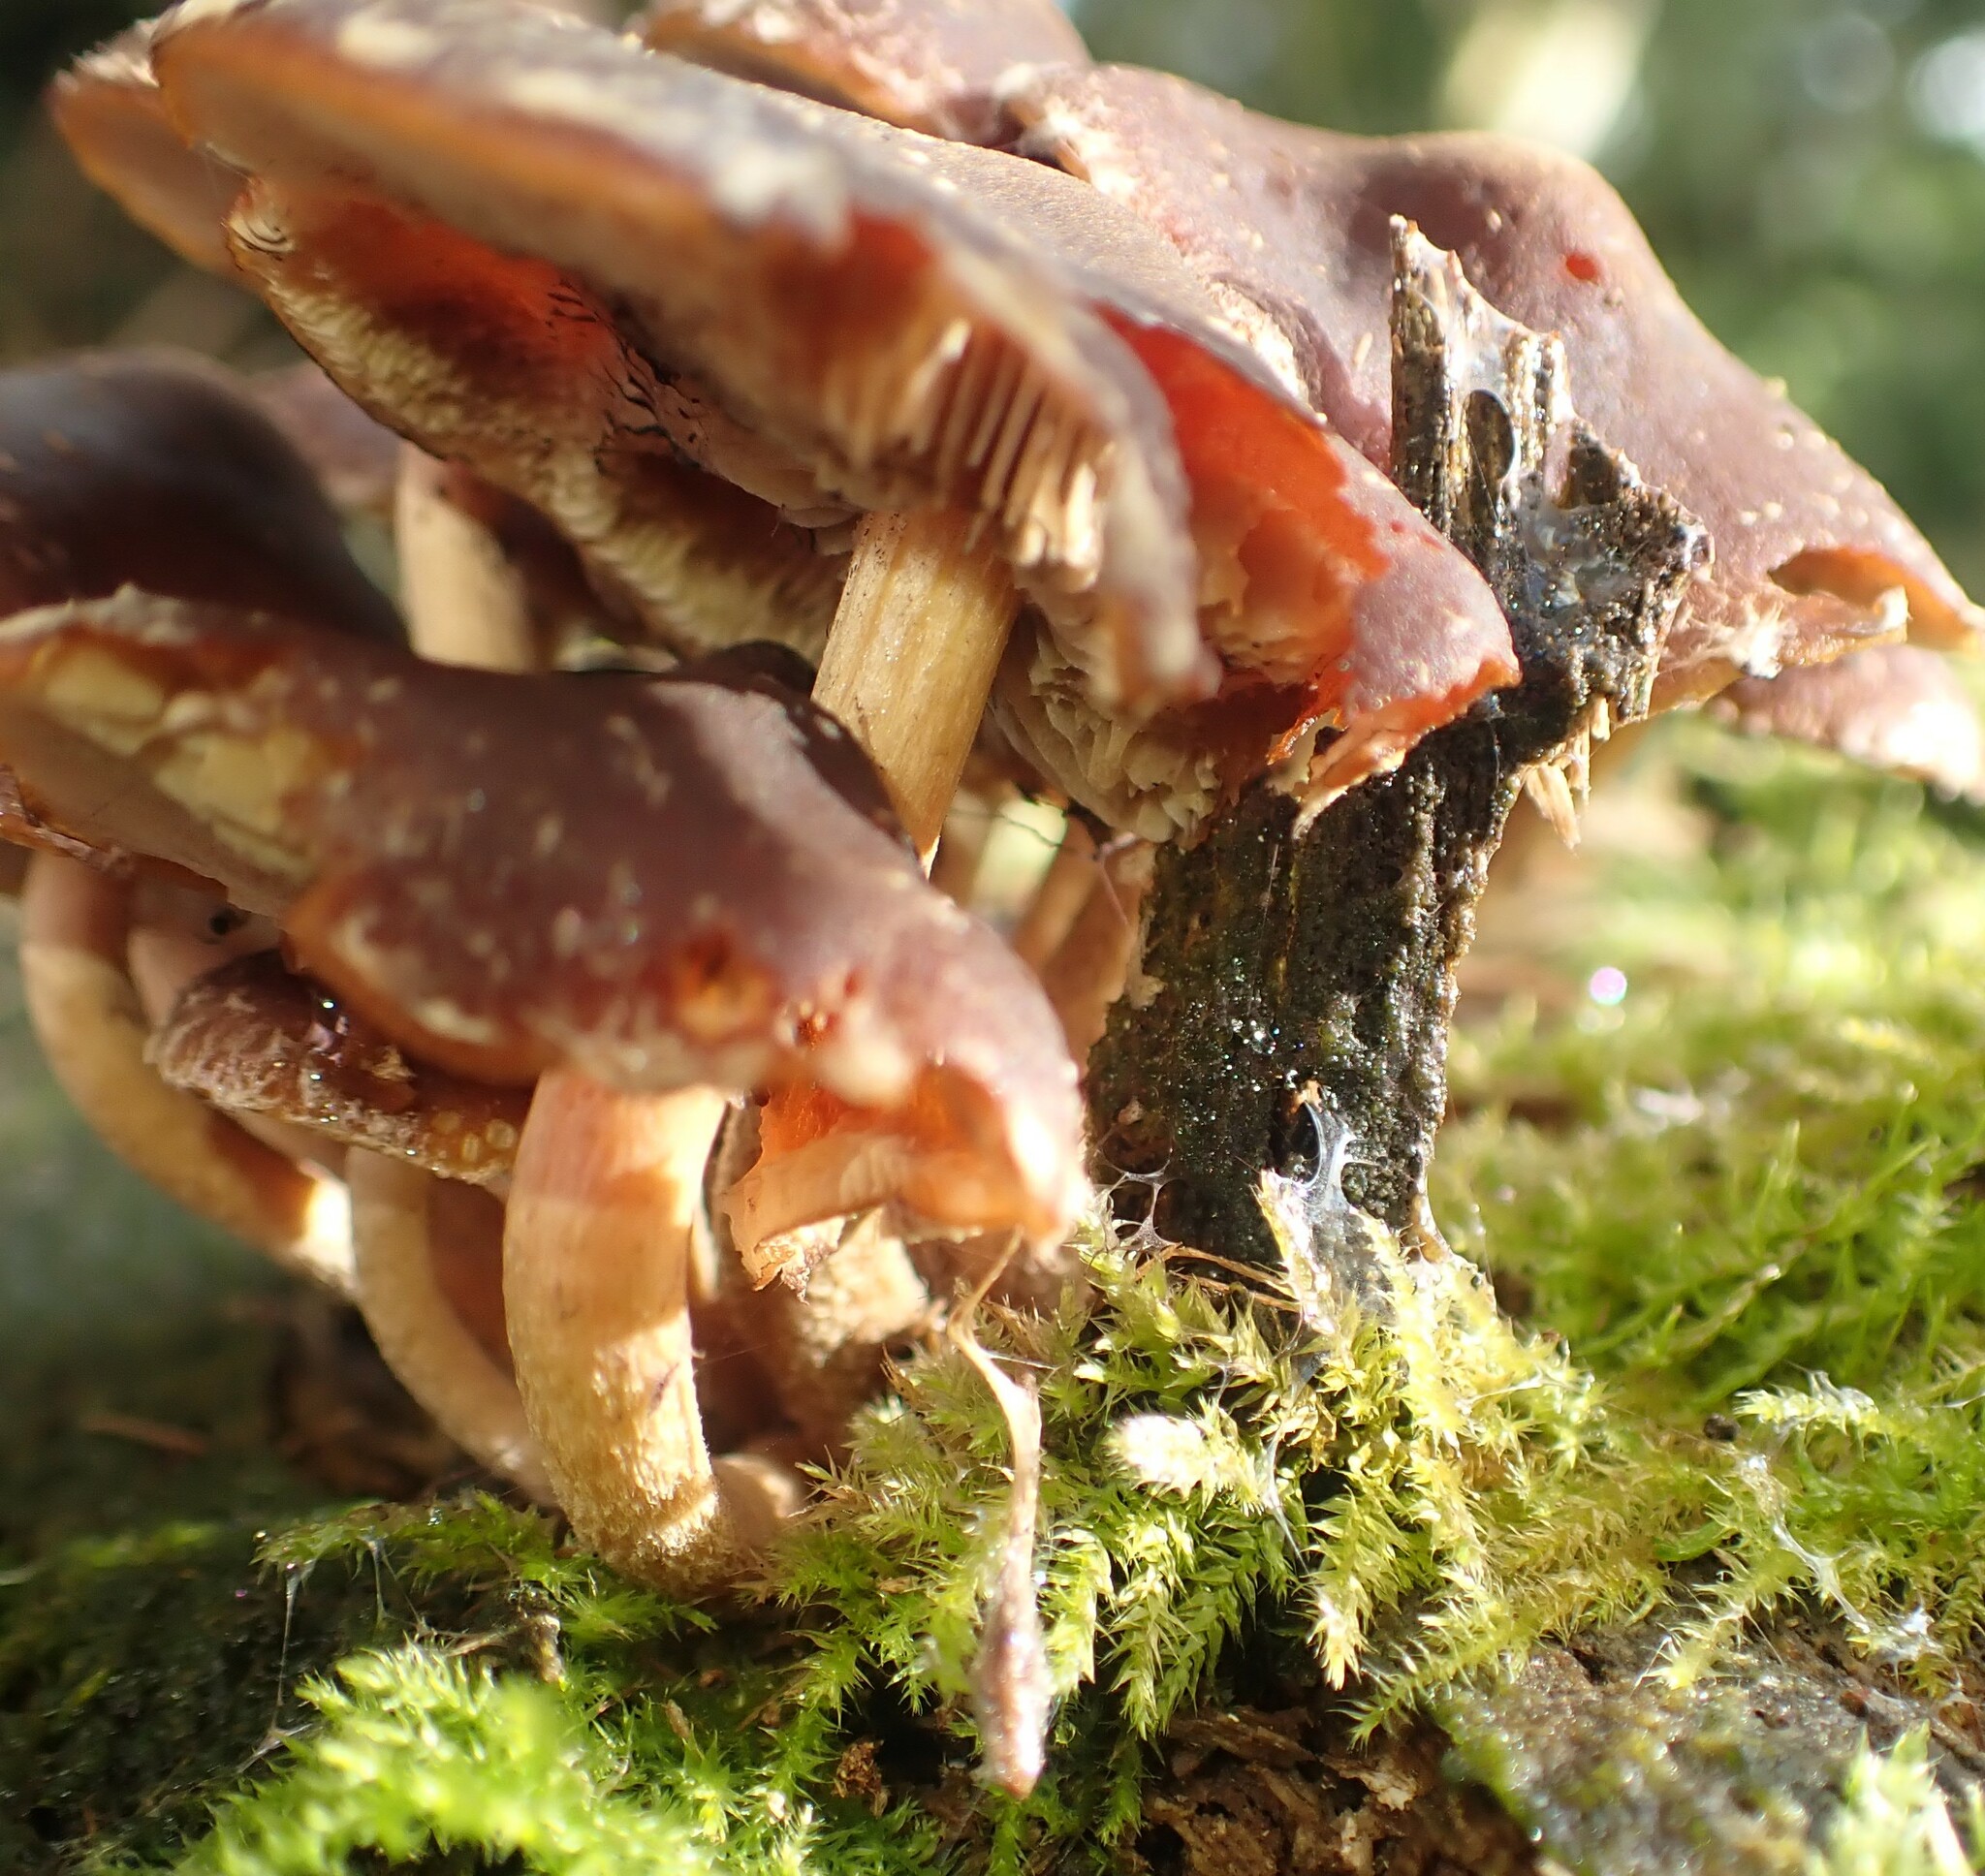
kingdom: Fungi
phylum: Basidiomycota
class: Agaricomycetes
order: Agaricales
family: Strophariaceae
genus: Hypholoma
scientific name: Hypholoma brunneum
